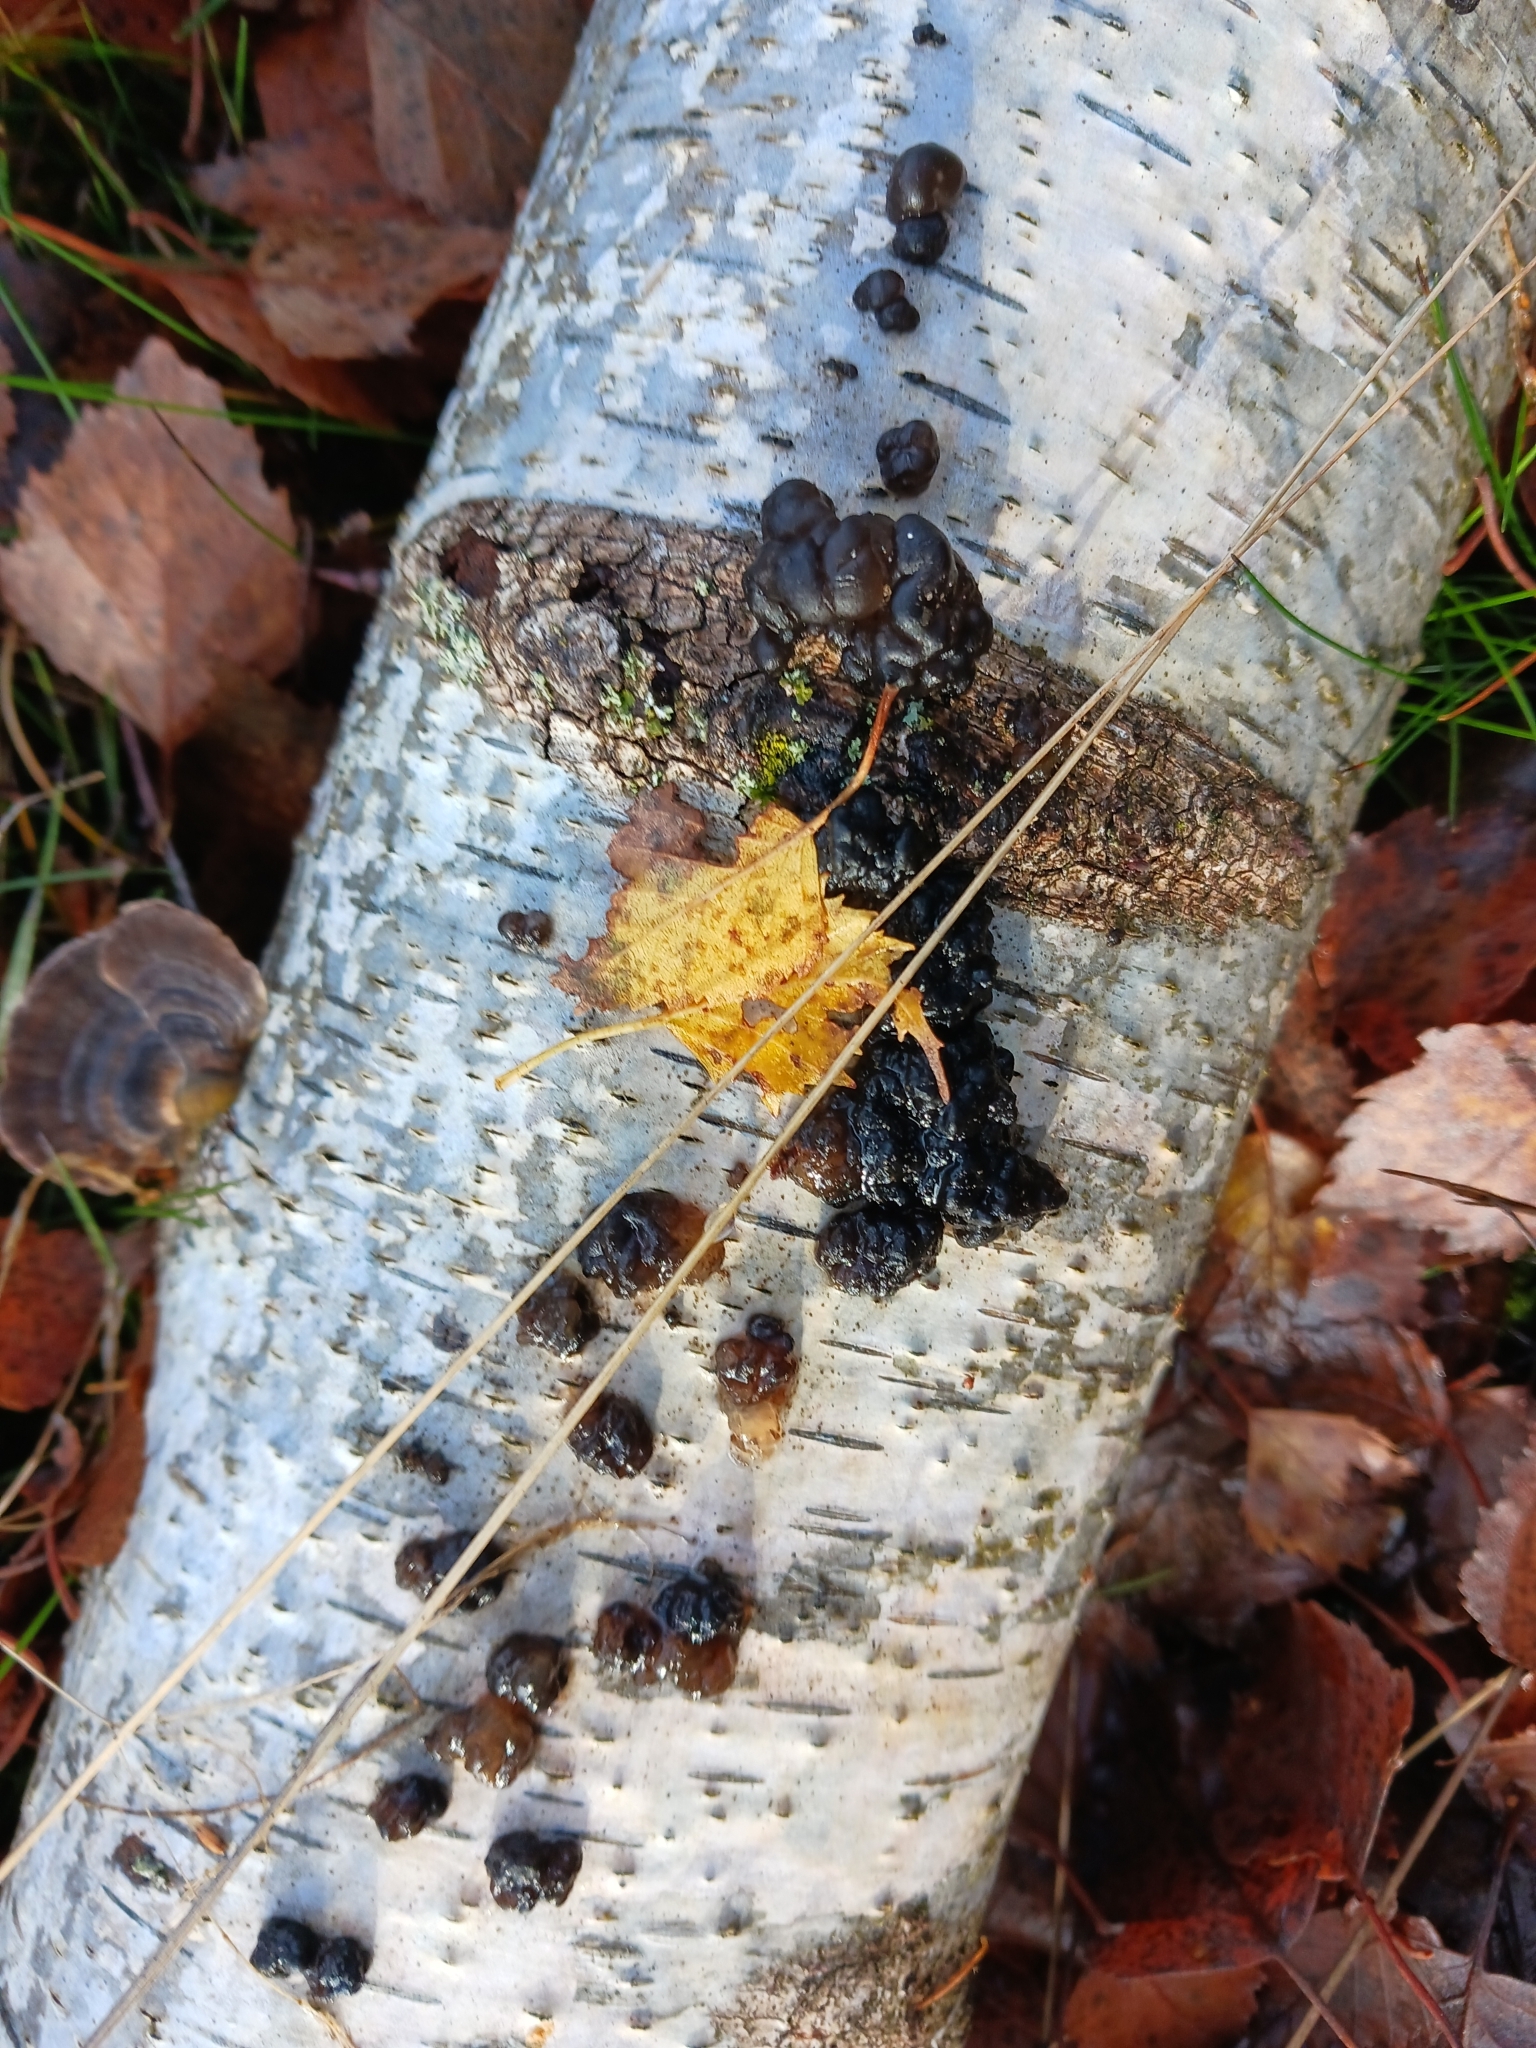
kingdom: Fungi
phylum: Basidiomycota
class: Agaricomycetes
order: Auriculariales
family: Auriculariaceae
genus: Exidia
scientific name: Exidia nigricans
